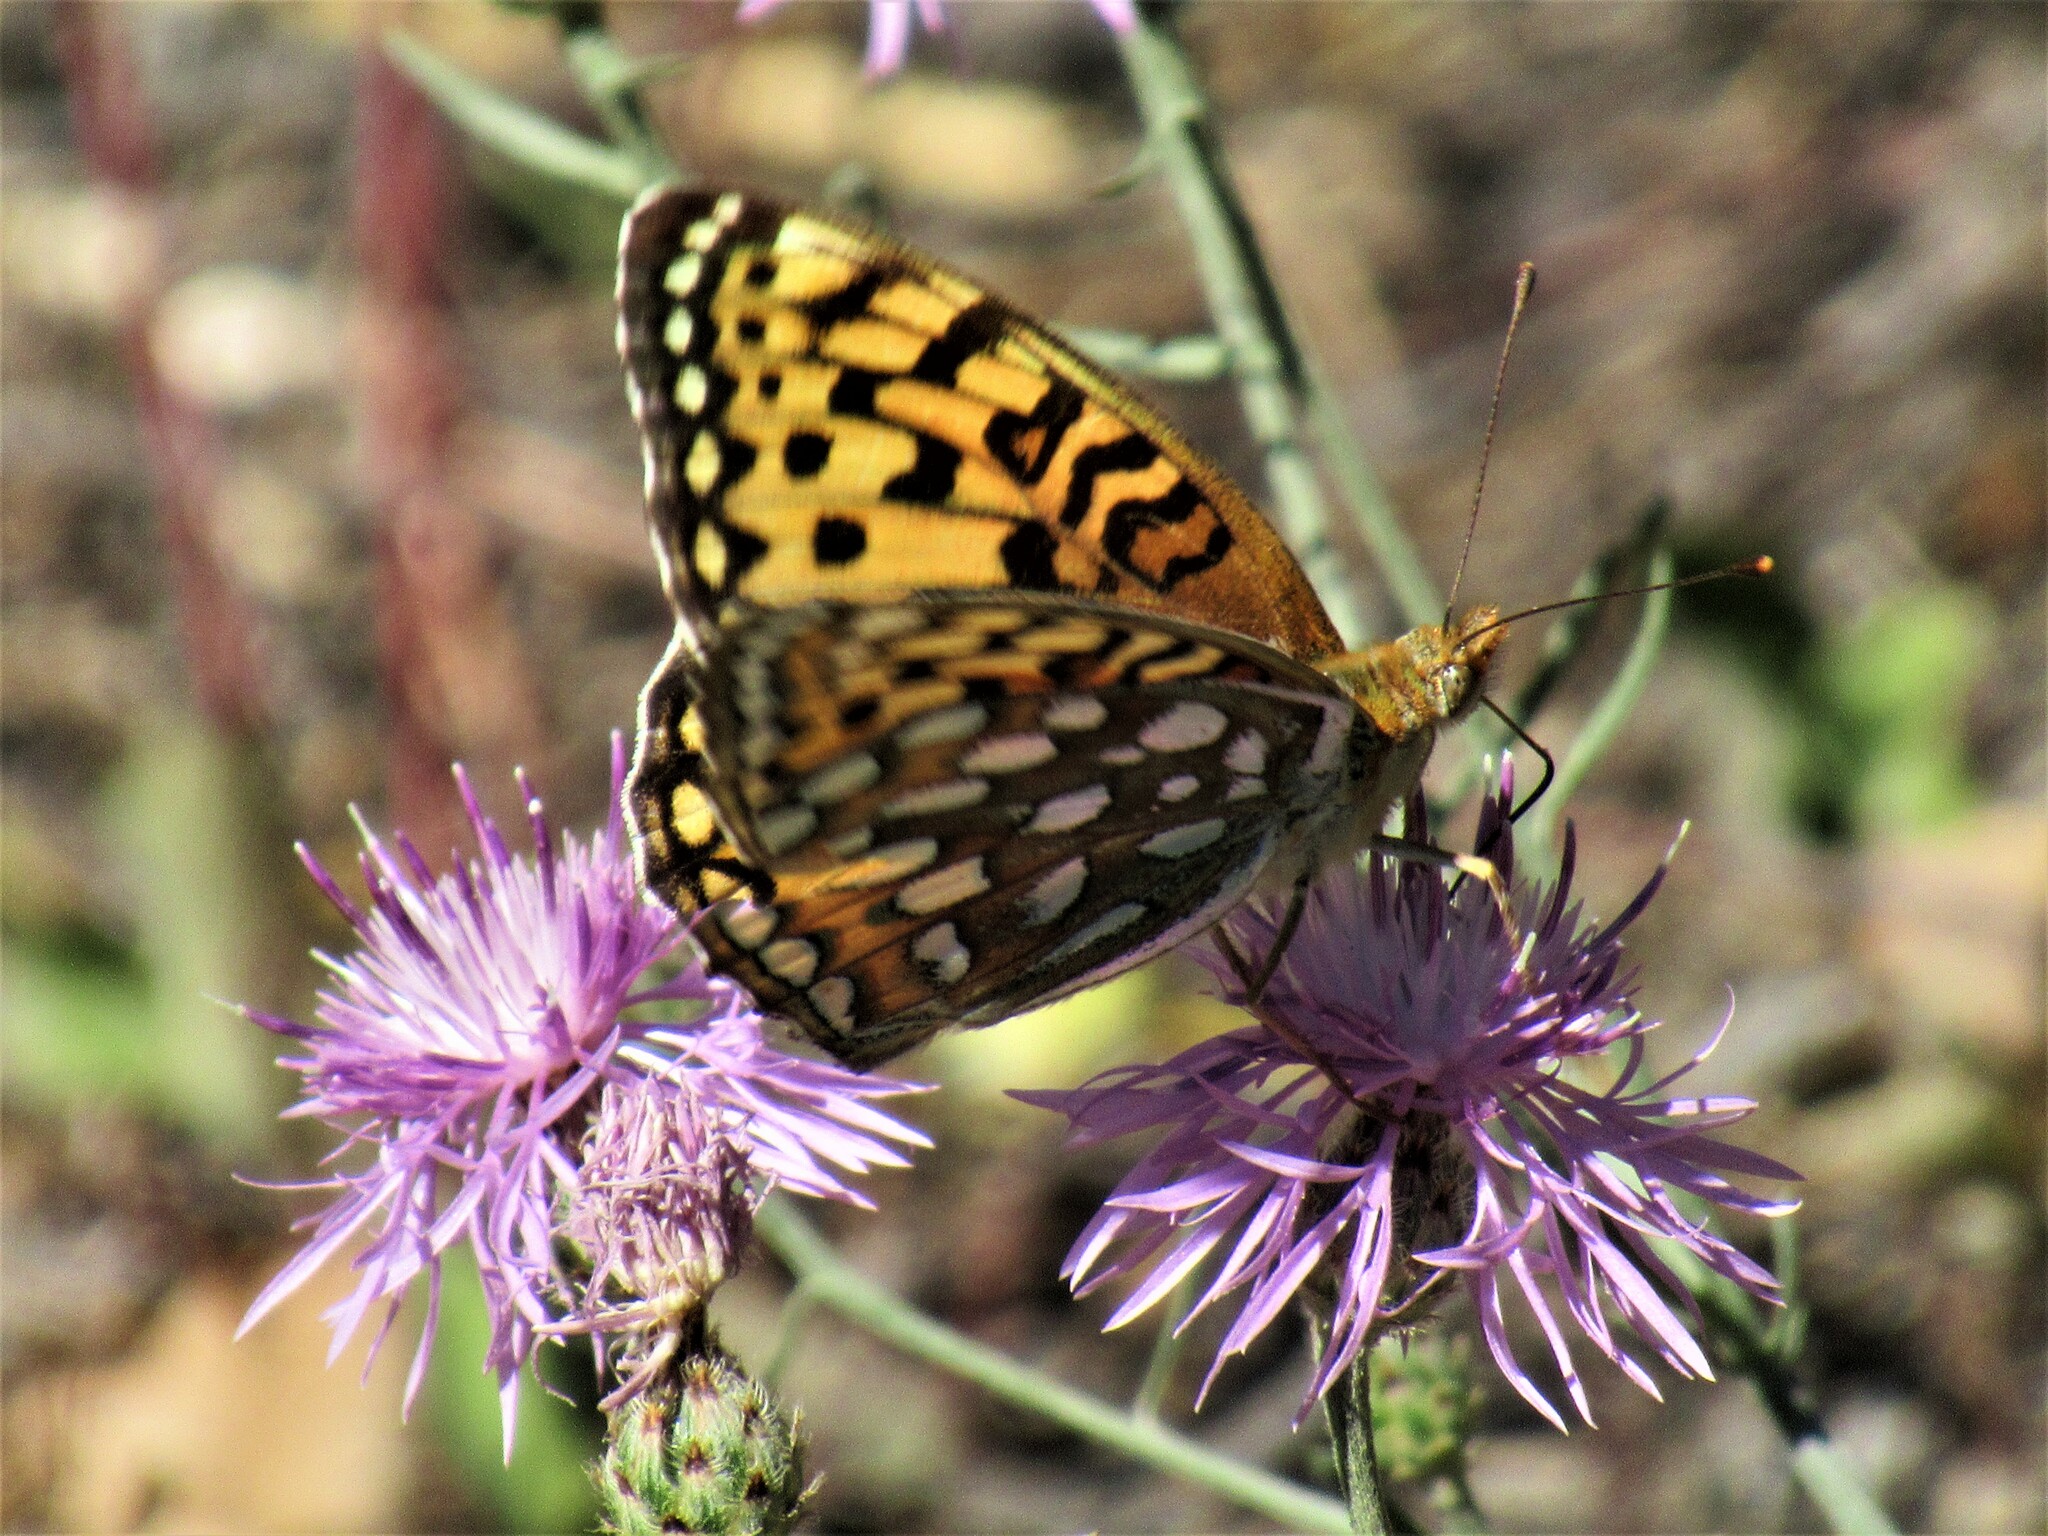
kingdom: Animalia
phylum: Arthropoda
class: Insecta
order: Lepidoptera
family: Nymphalidae
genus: Argynnis
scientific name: Argynnis coronis
